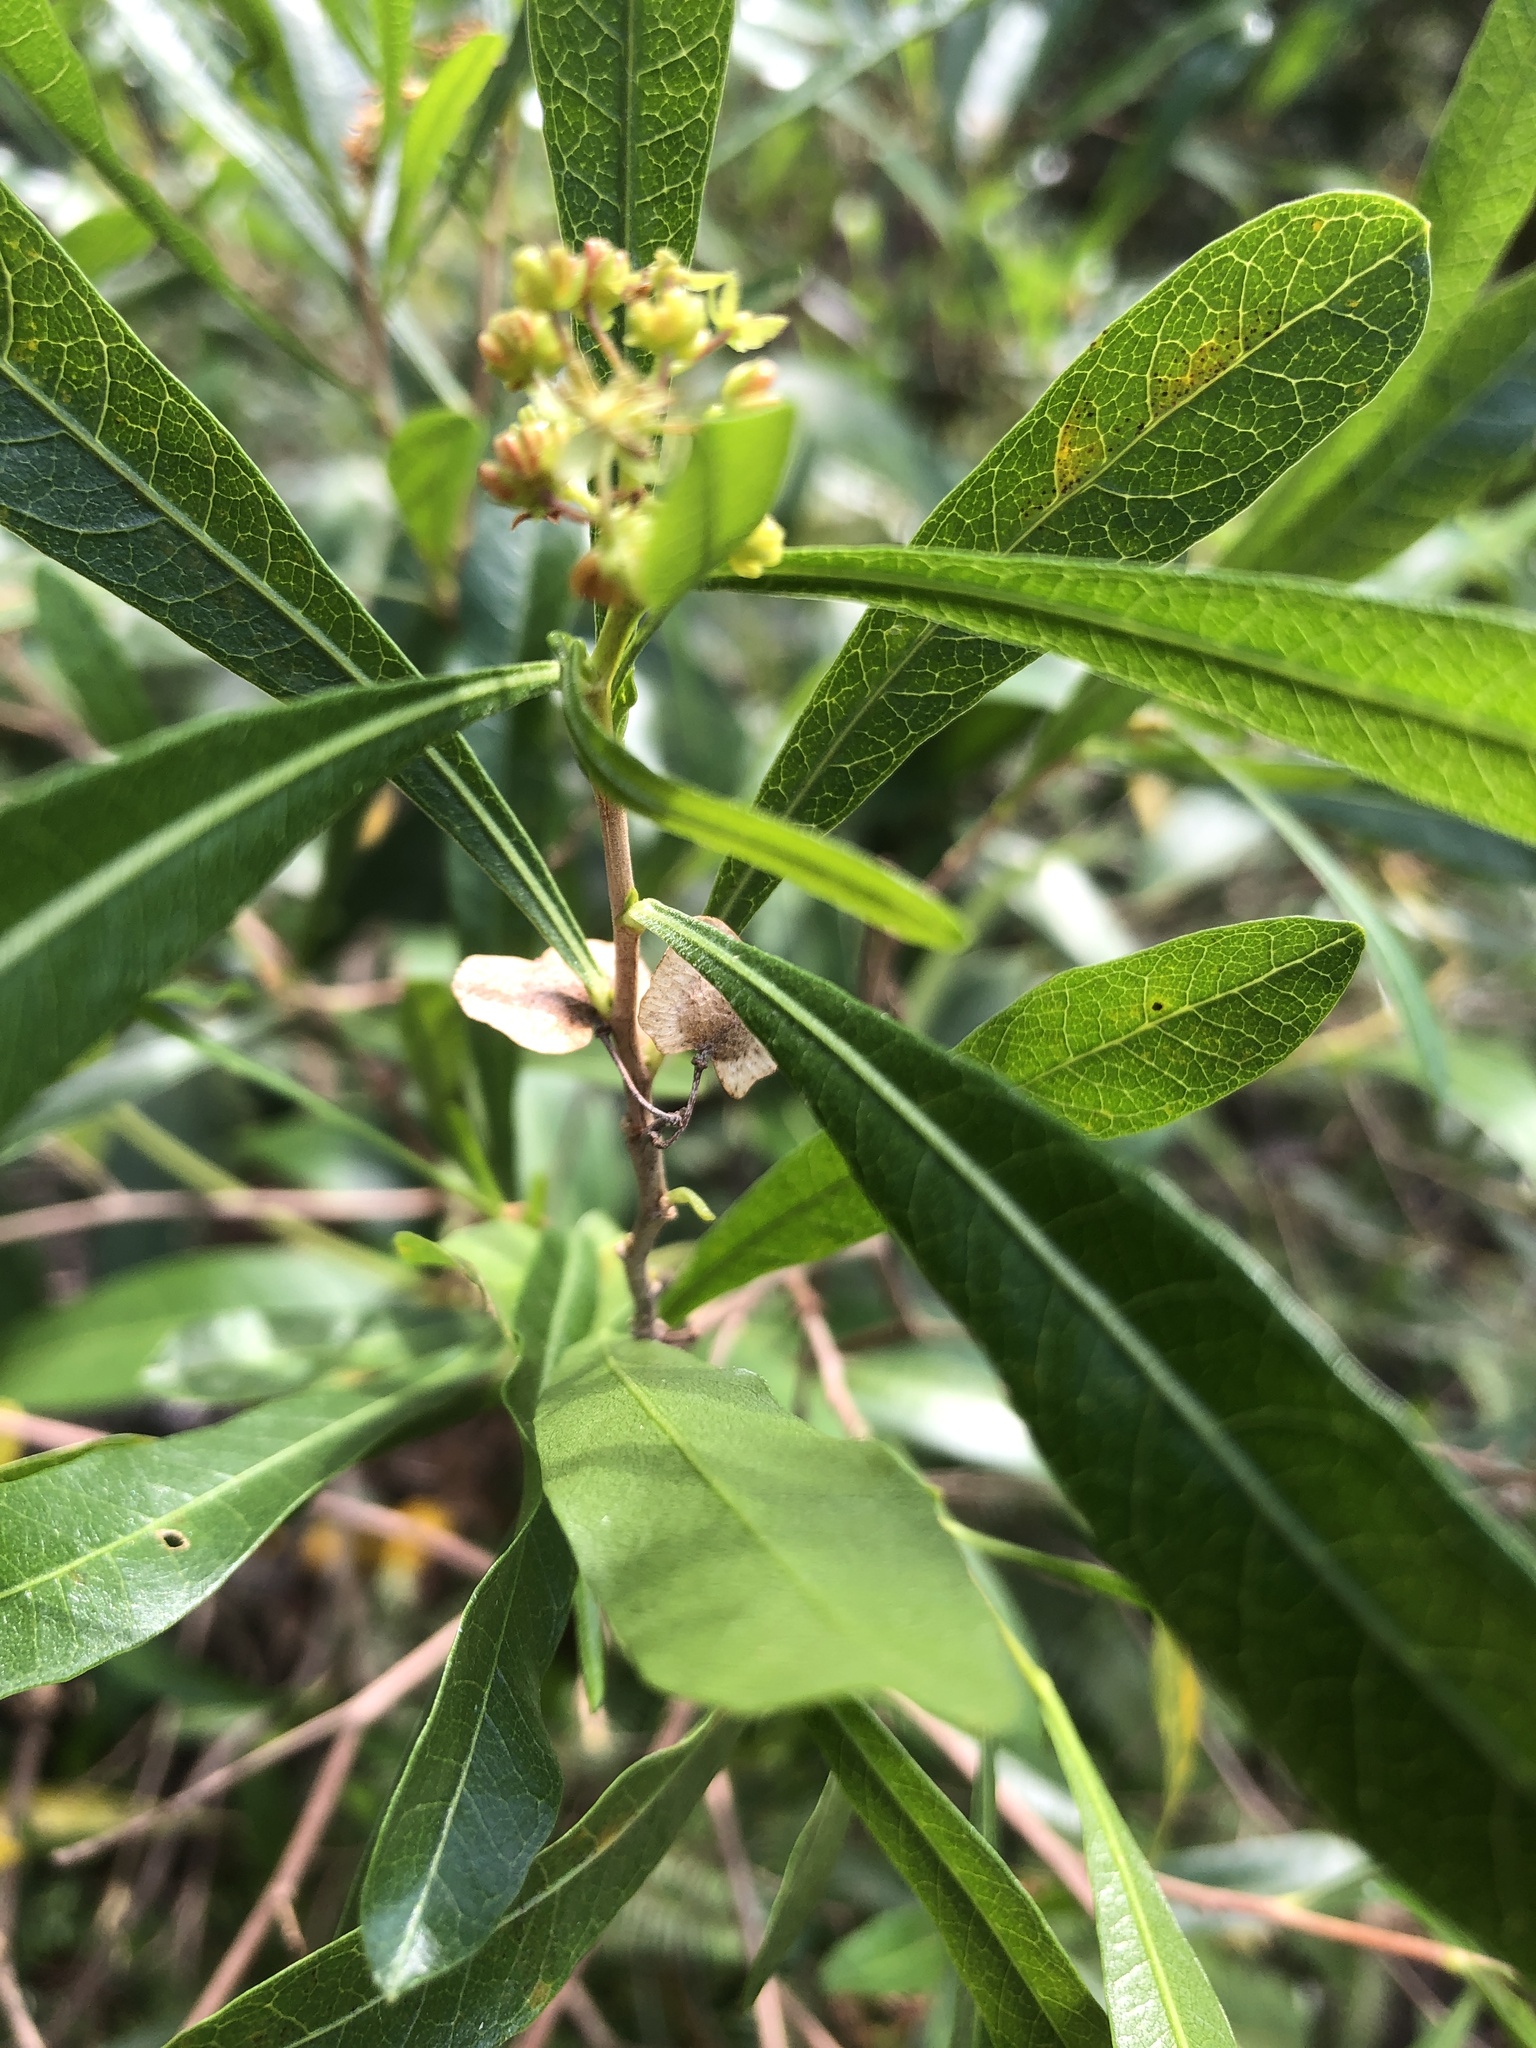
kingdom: Plantae
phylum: Tracheophyta
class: Magnoliopsida
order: Sapindales
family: Sapindaceae
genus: Dodonaea
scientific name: Dodonaea viscosa
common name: Hopbush
